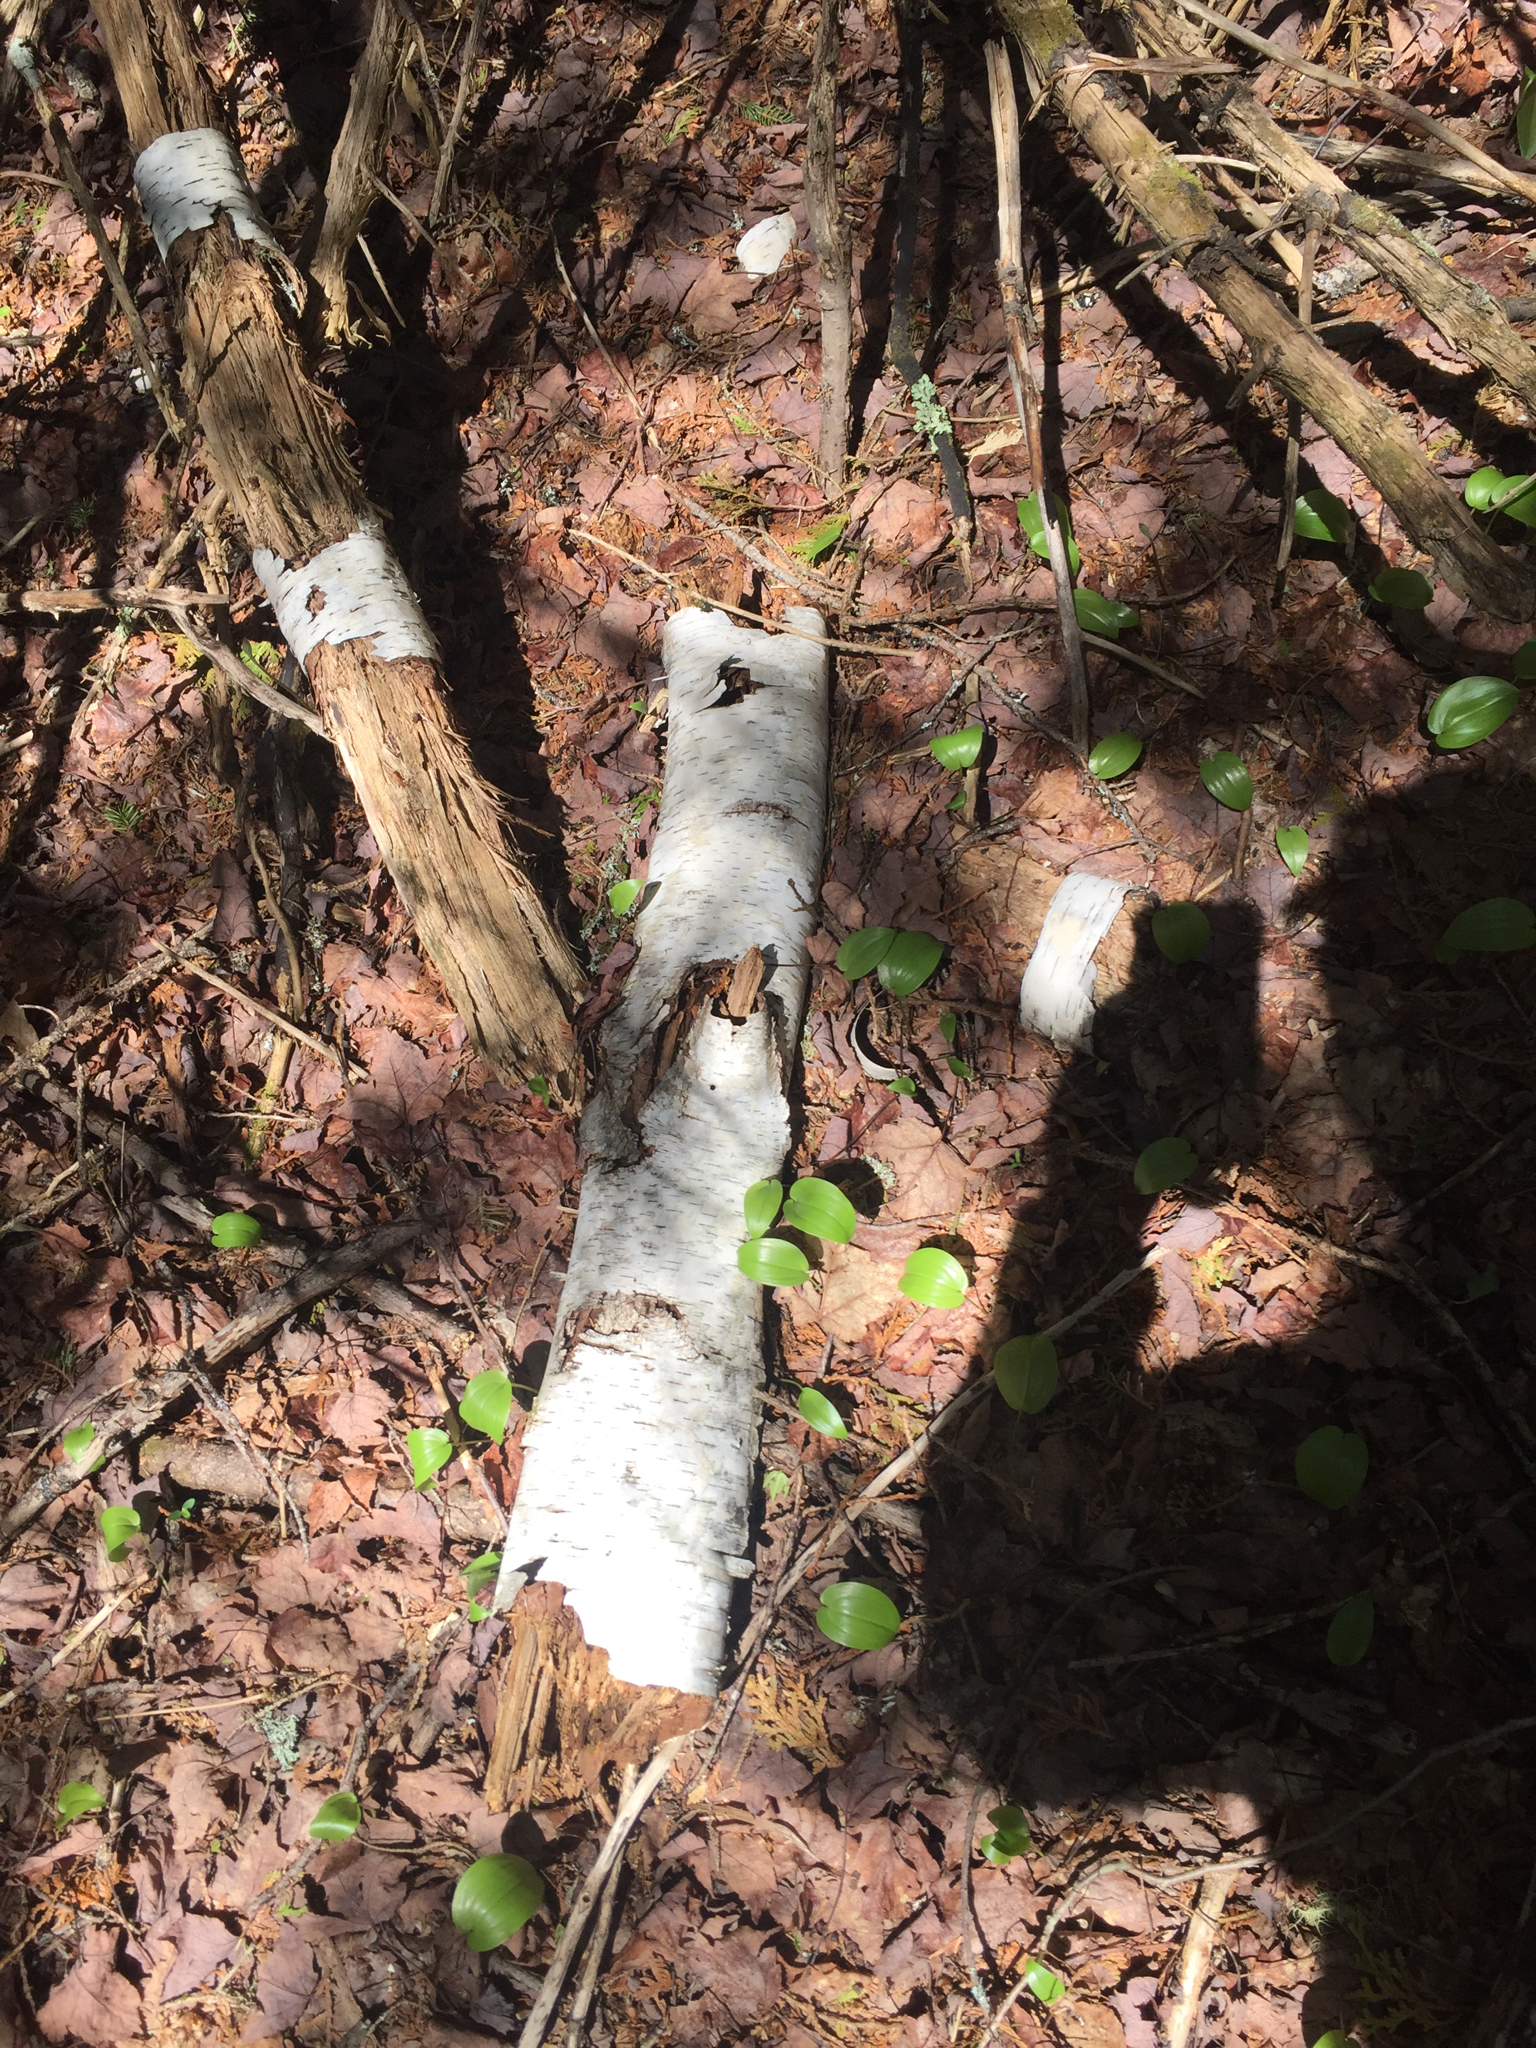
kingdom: Plantae
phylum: Tracheophyta
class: Magnoliopsida
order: Fagales
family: Betulaceae
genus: Betula
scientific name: Betula papyrifera
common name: Paper birch
